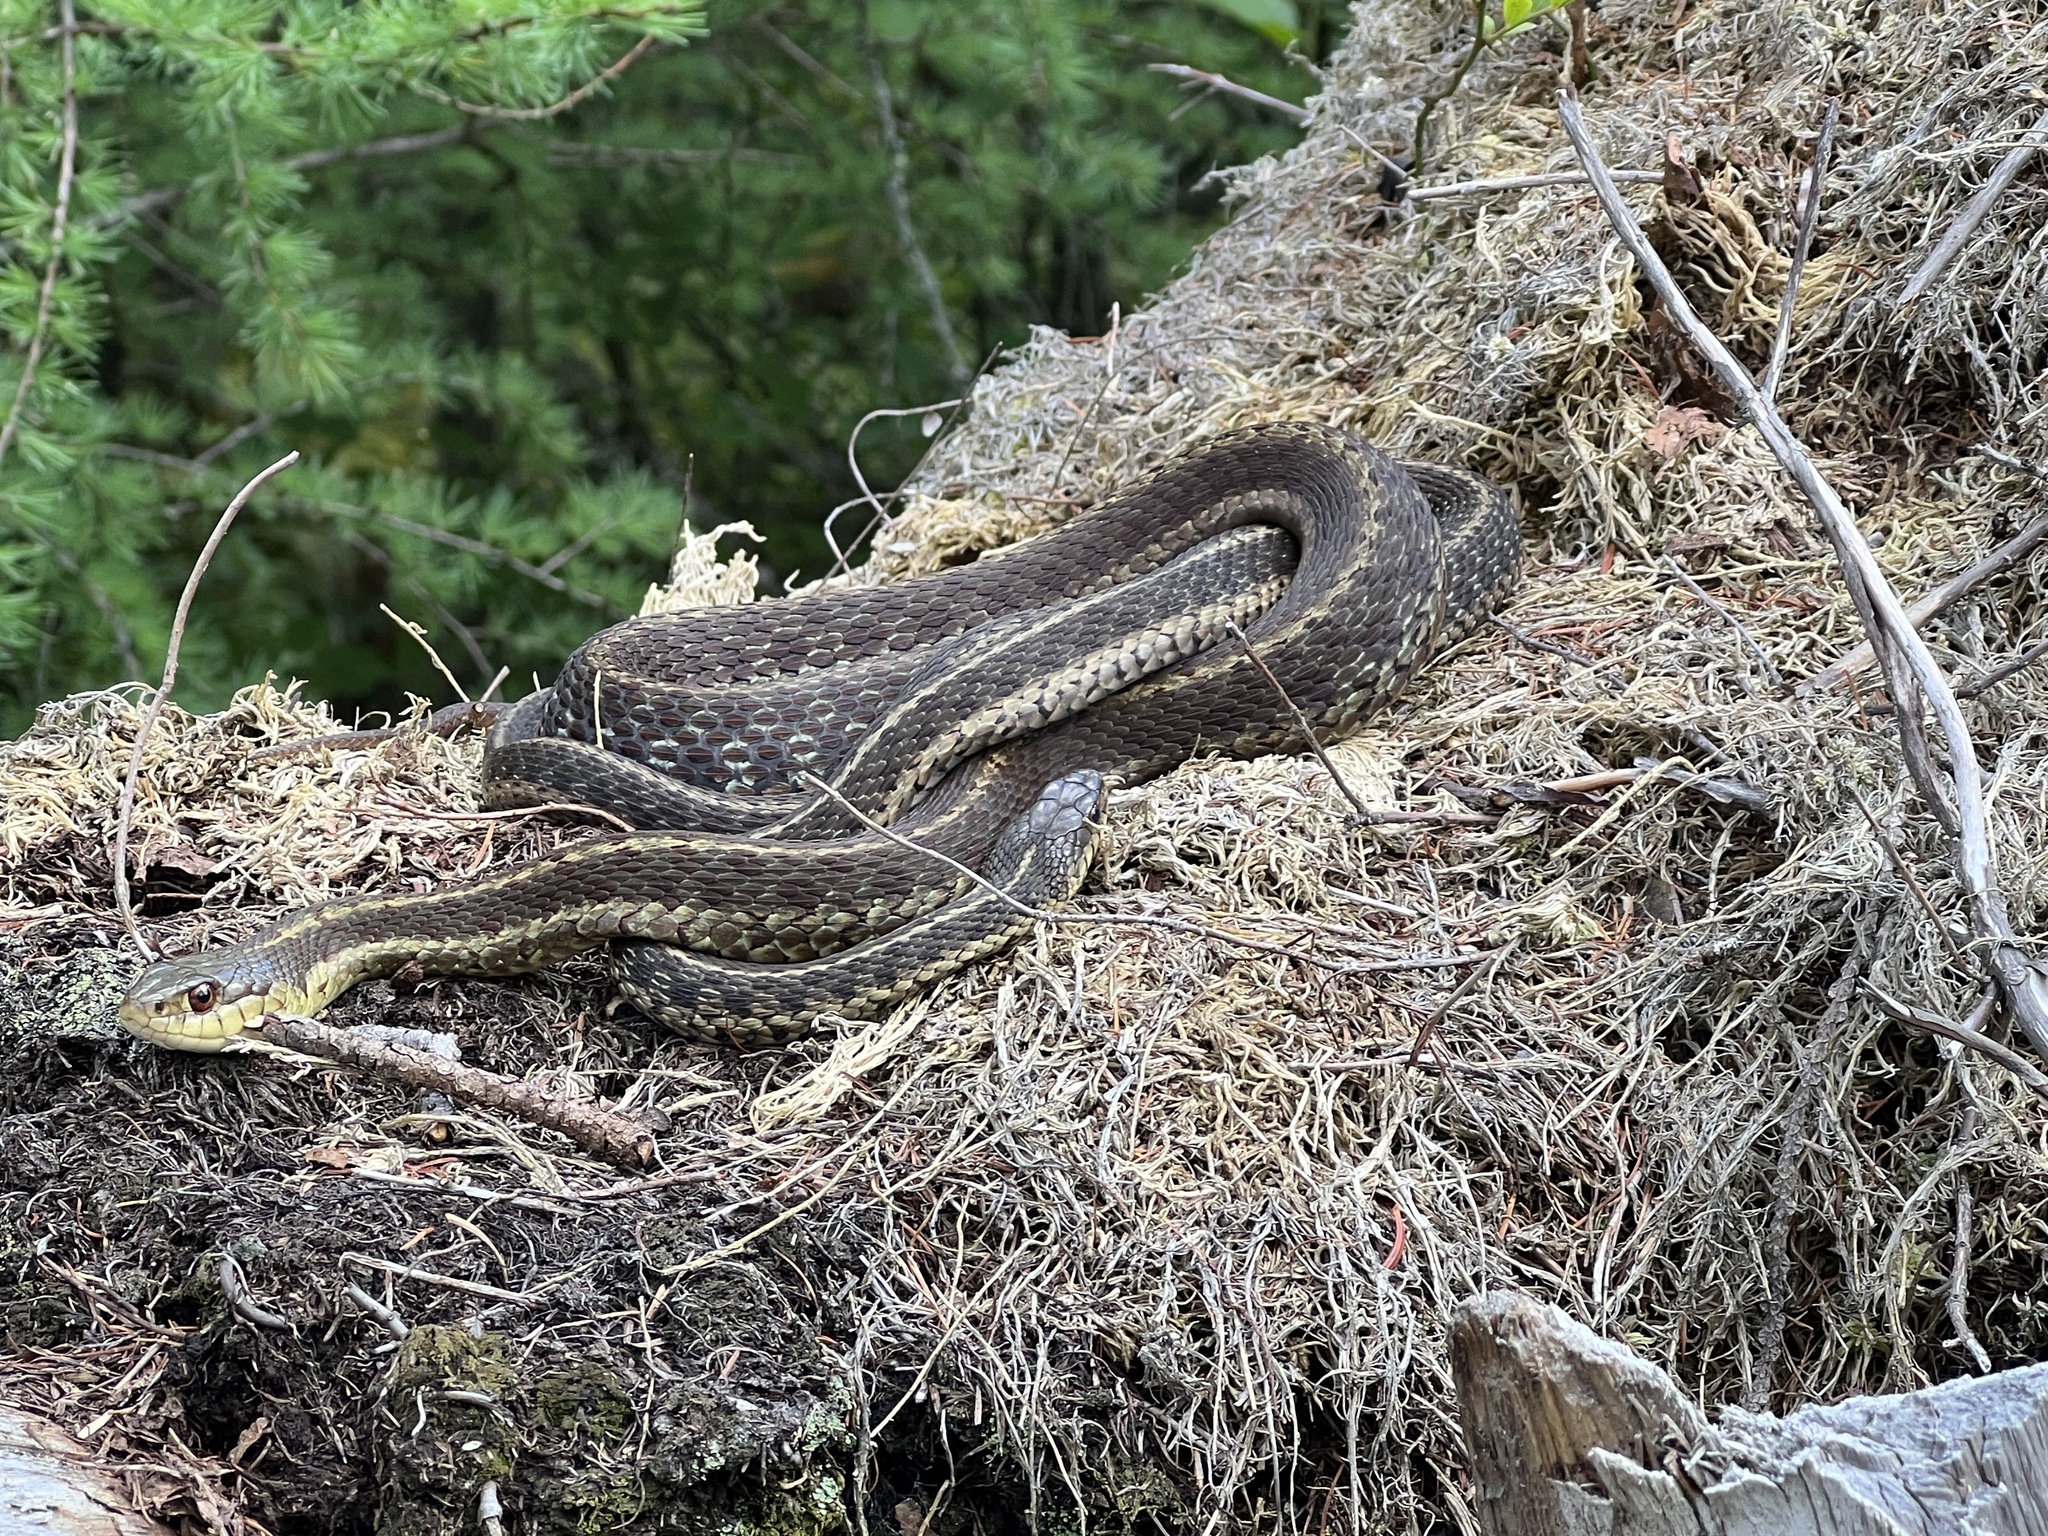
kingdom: Animalia
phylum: Chordata
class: Squamata
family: Colubridae
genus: Thamnophis
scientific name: Thamnophis sirtalis
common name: Common garter snake
